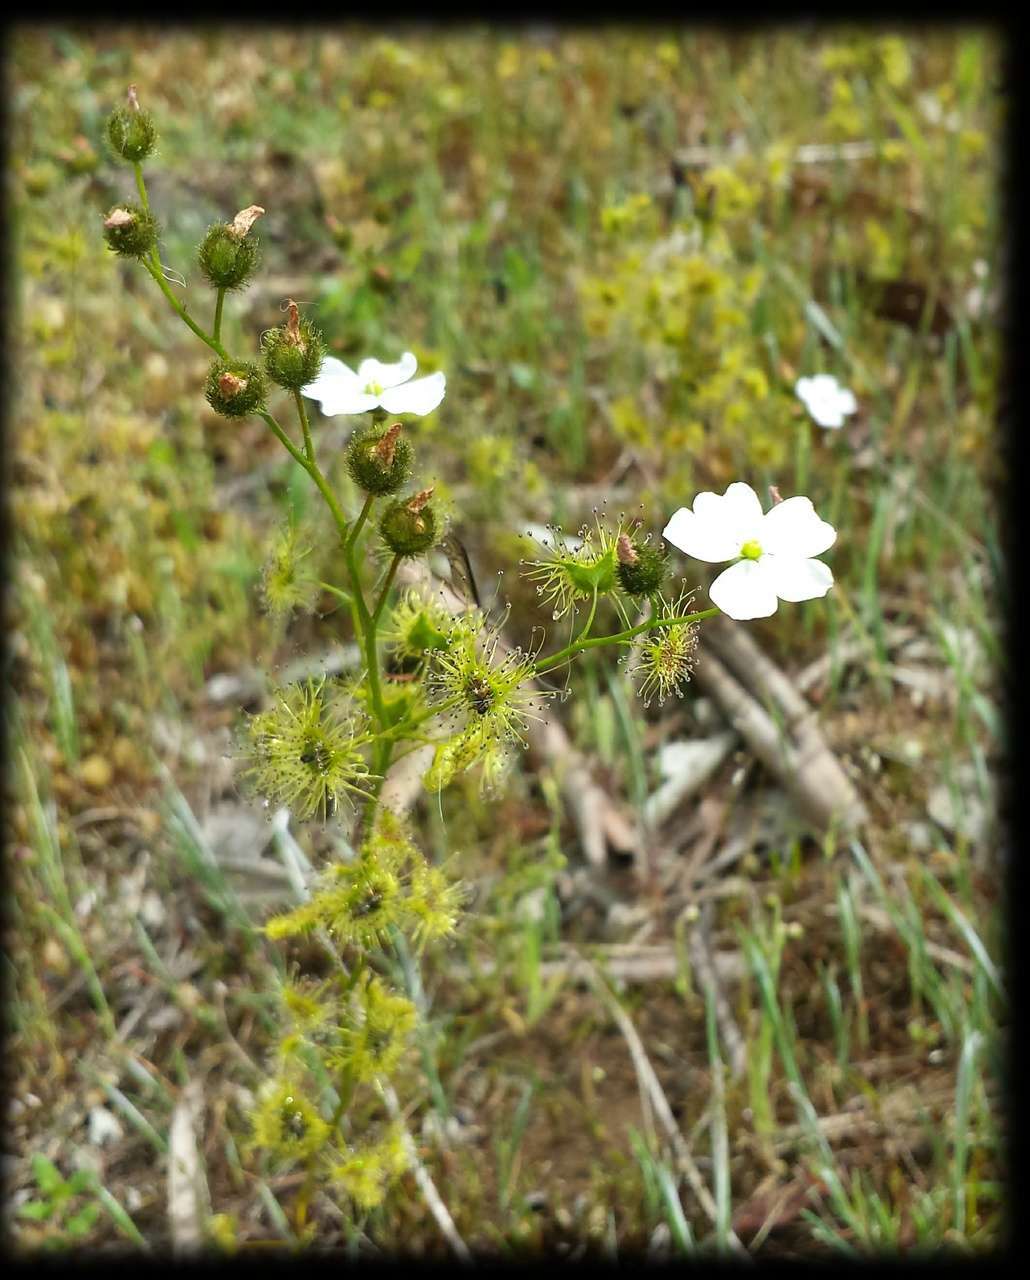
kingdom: Plantae
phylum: Tracheophyta
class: Magnoliopsida
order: Caryophyllales
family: Droseraceae
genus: Drosera
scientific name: Drosera gunniana
